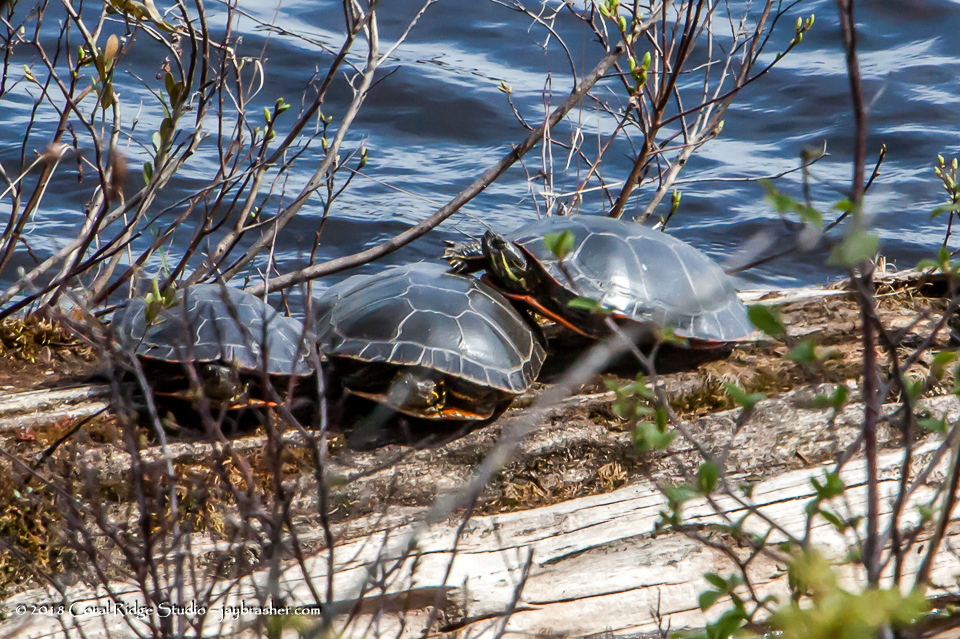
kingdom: Animalia
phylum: Chordata
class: Testudines
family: Emydidae
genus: Chrysemys
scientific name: Chrysemys picta
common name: Painted turtle
